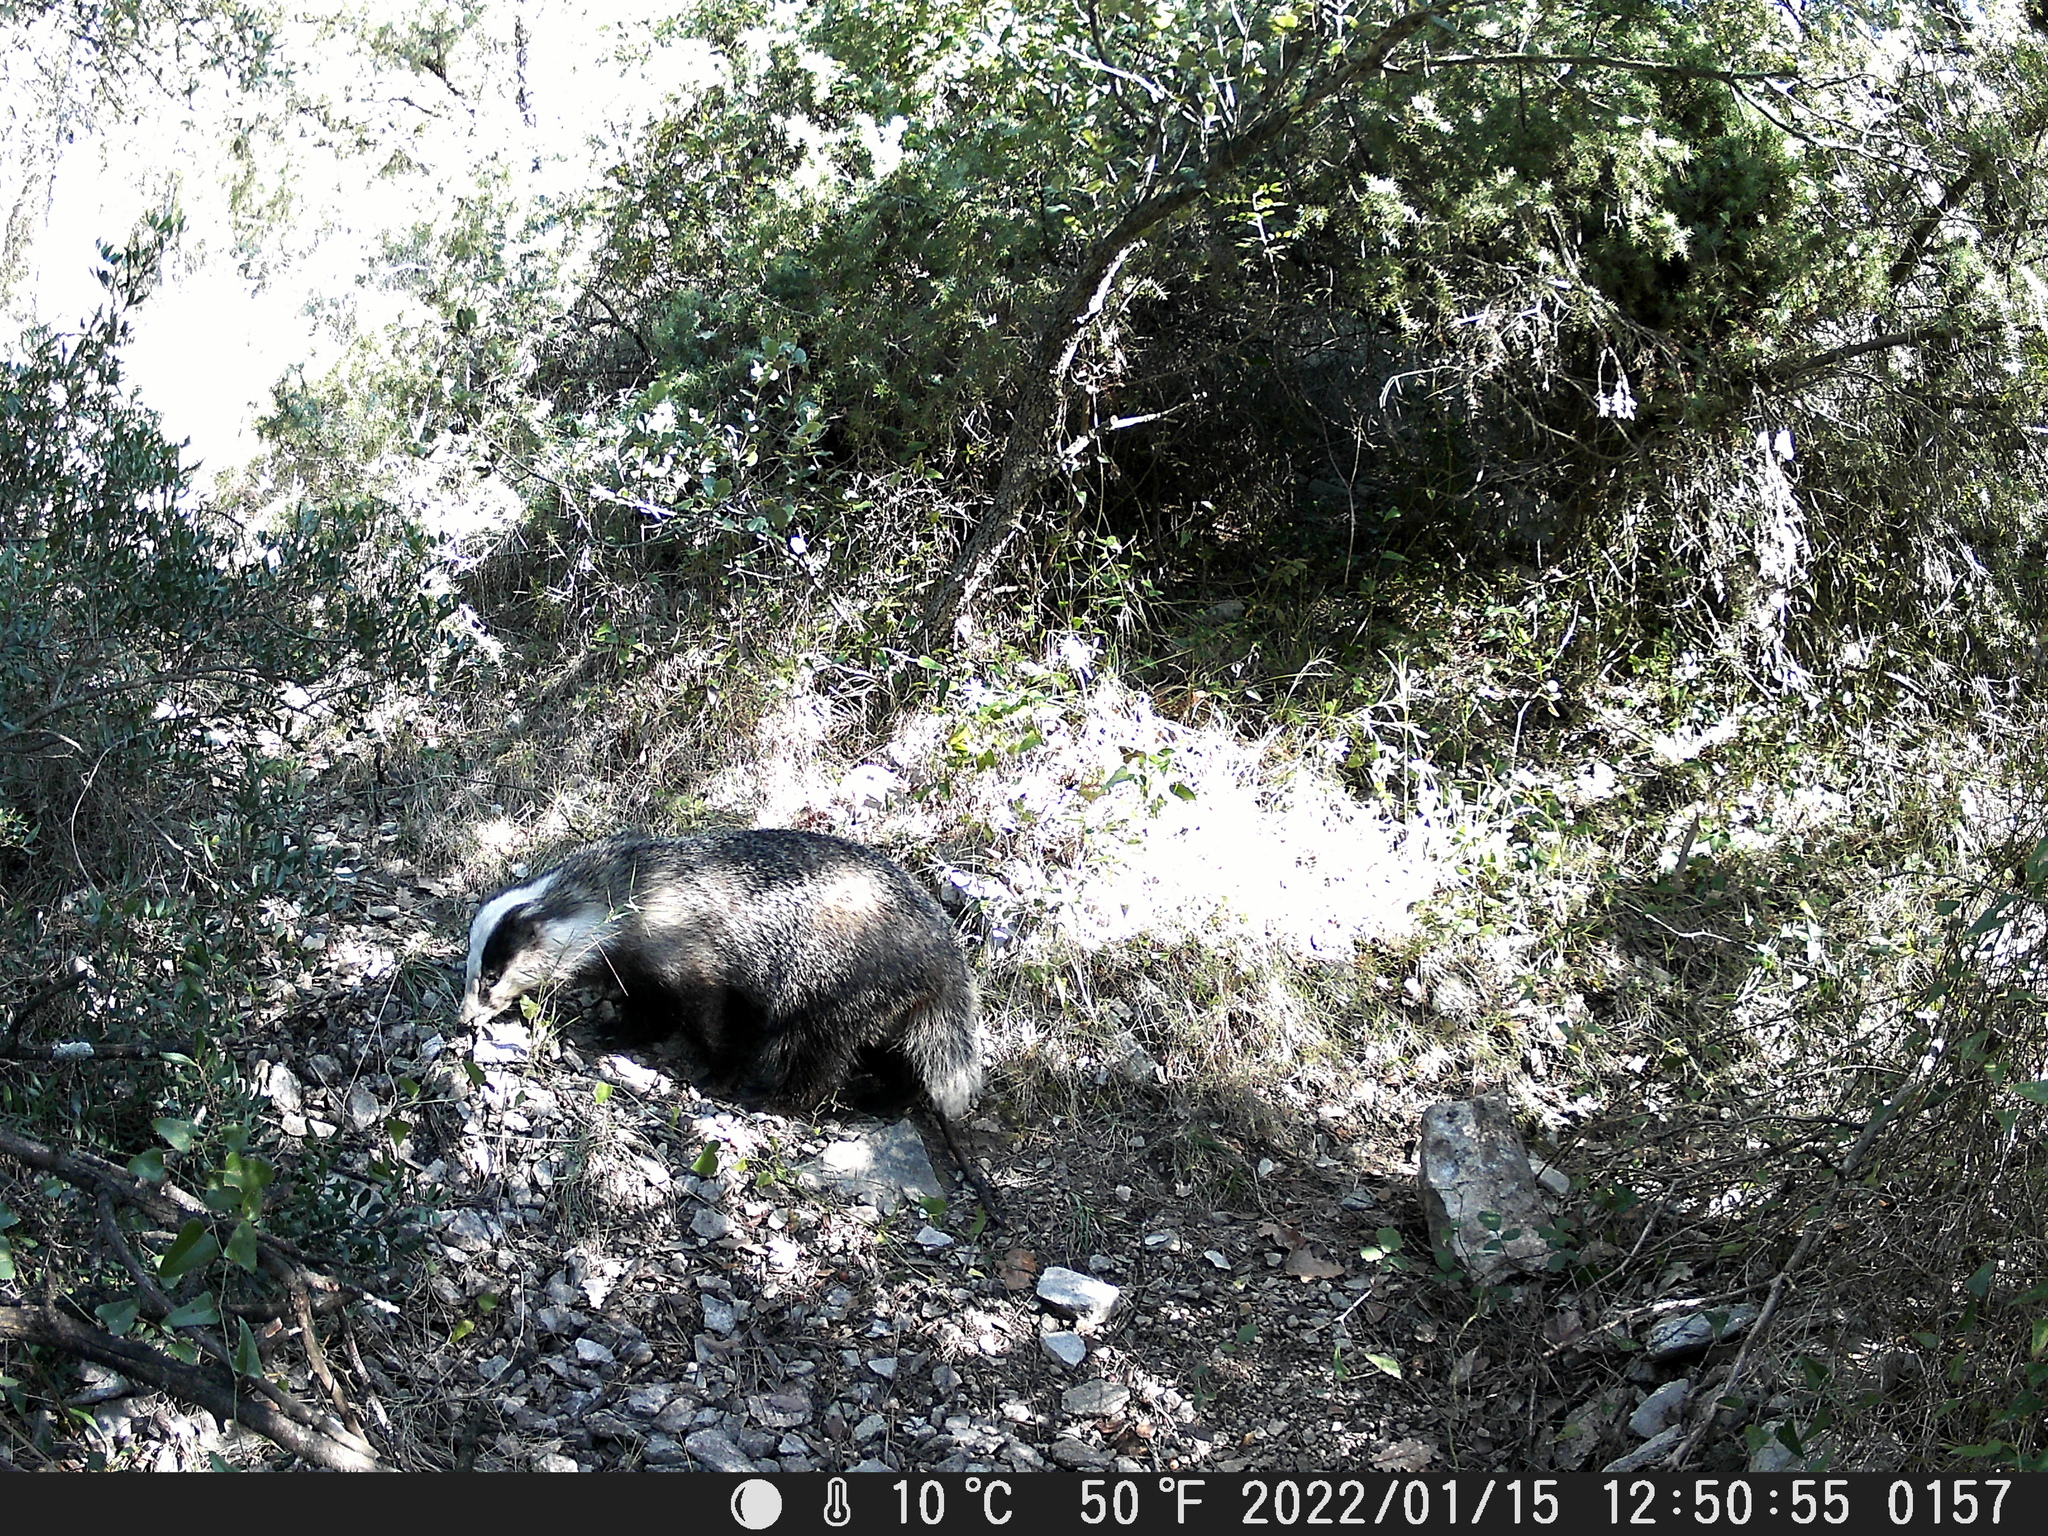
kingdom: Animalia
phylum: Chordata
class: Mammalia
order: Carnivora
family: Mustelidae
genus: Meles
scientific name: Meles meles
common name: Eurasian badger
